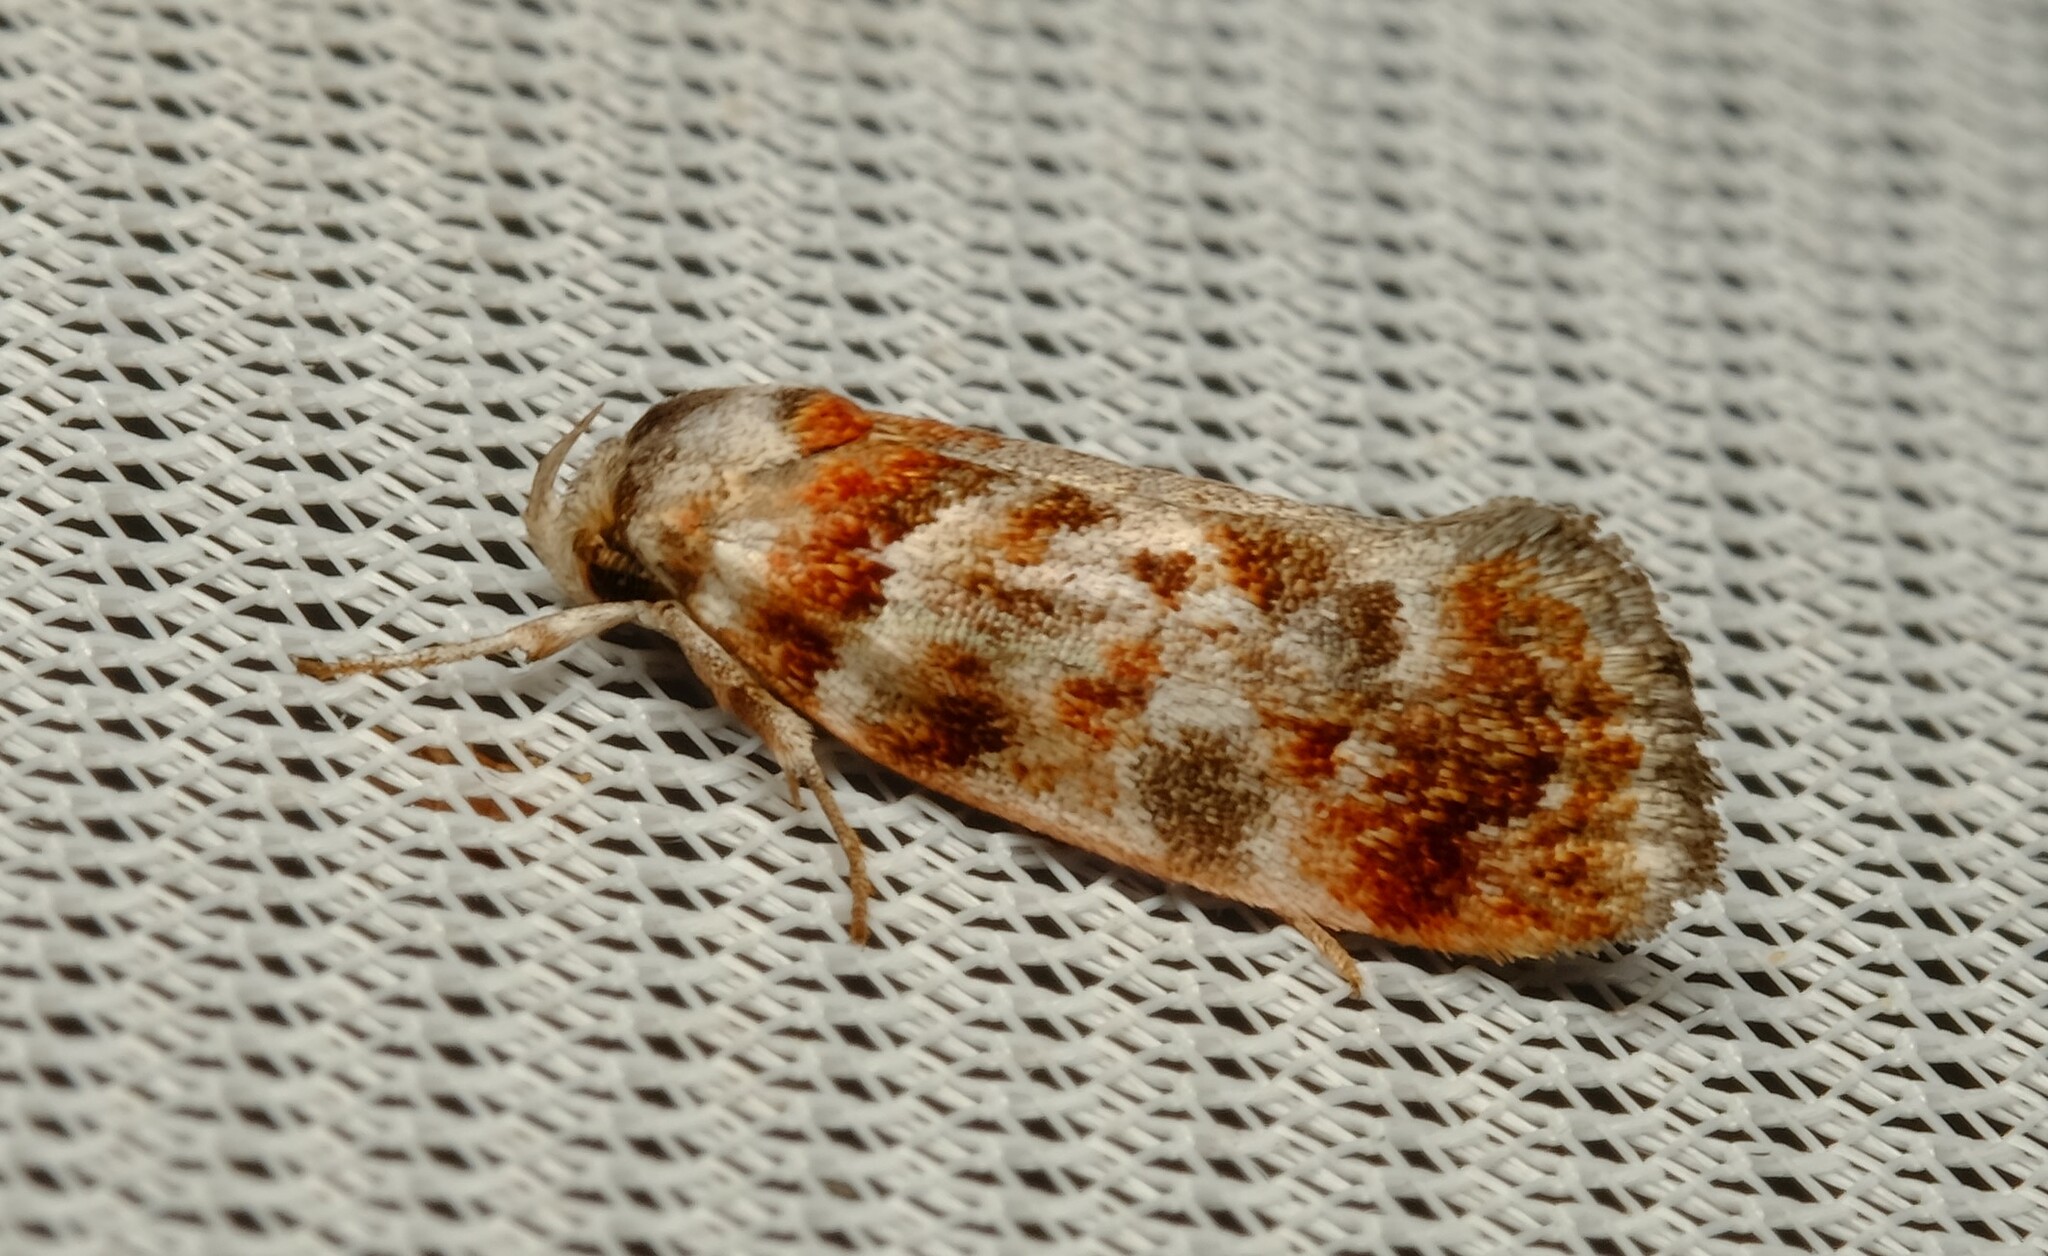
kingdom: Animalia
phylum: Arthropoda
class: Insecta
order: Lepidoptera
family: Oecophoridae
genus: Acmotoma
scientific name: Acmotoma magniferella
